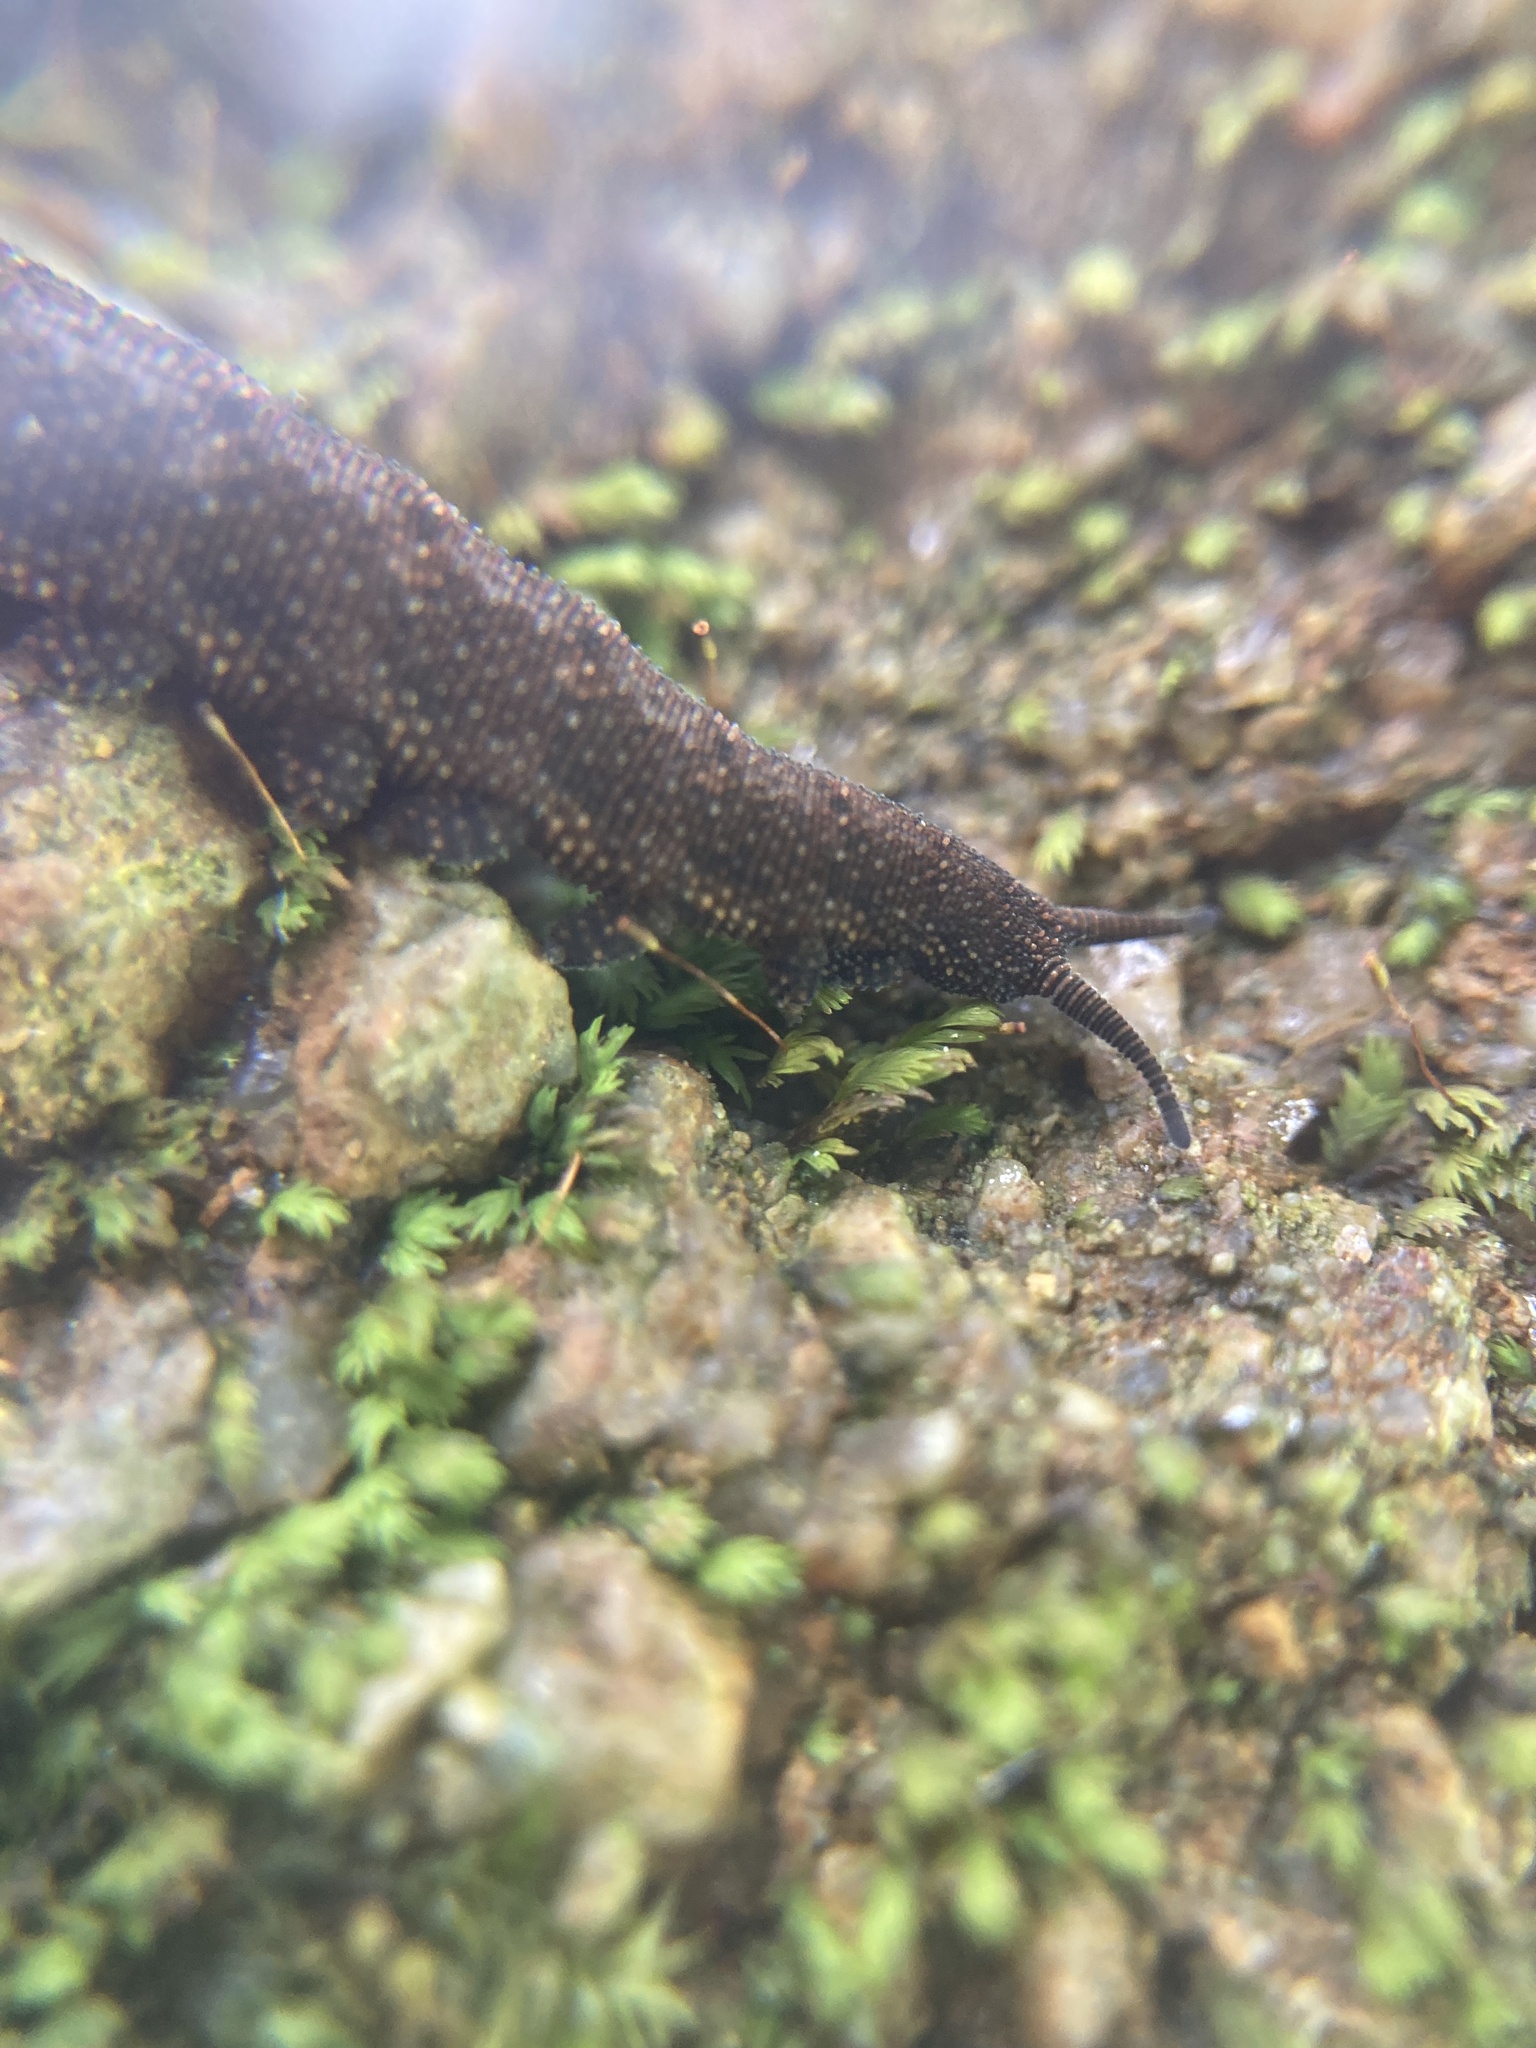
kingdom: Animalia
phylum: Onychophora
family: Peripatopsidae
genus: Anoplokaros
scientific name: Anoplokaros keerensis
